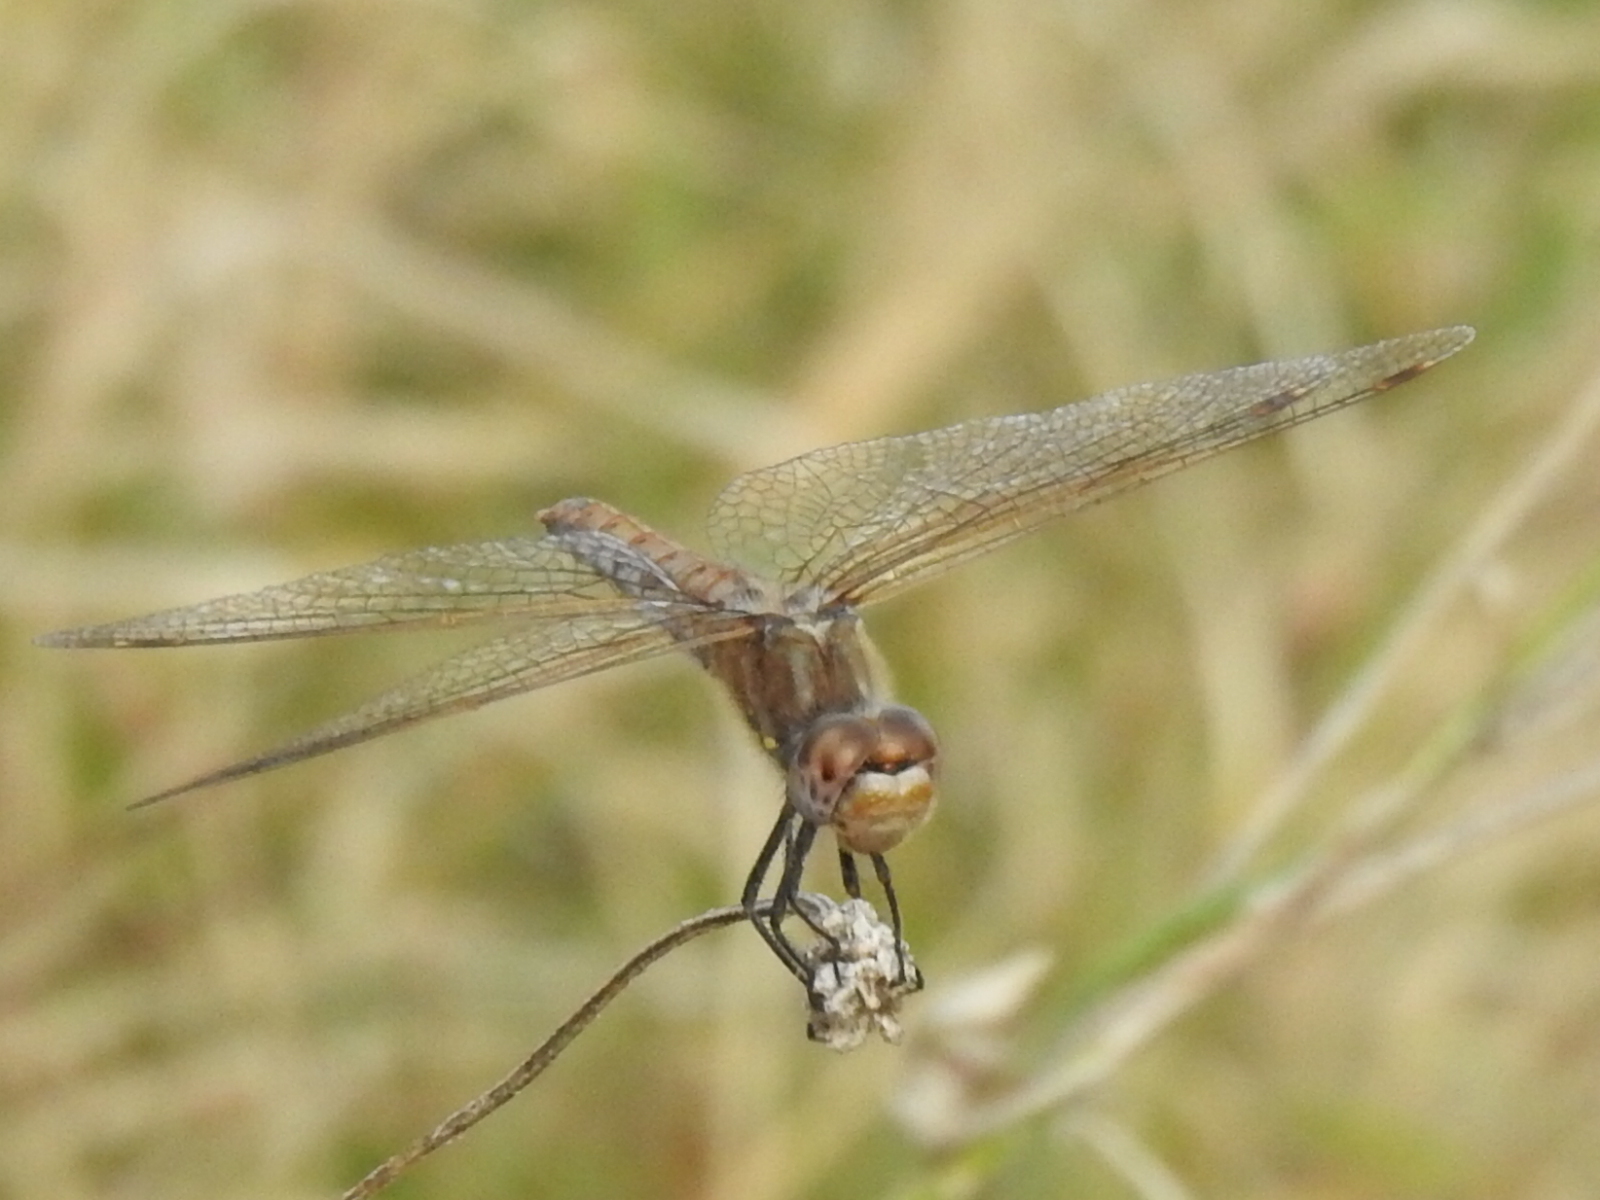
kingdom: Animalia
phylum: Arthropoda
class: Insecta
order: Odonata
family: Libellulidae
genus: Sympetrum
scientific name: Sympetrum corruptum
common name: Variegated meadowhawk
